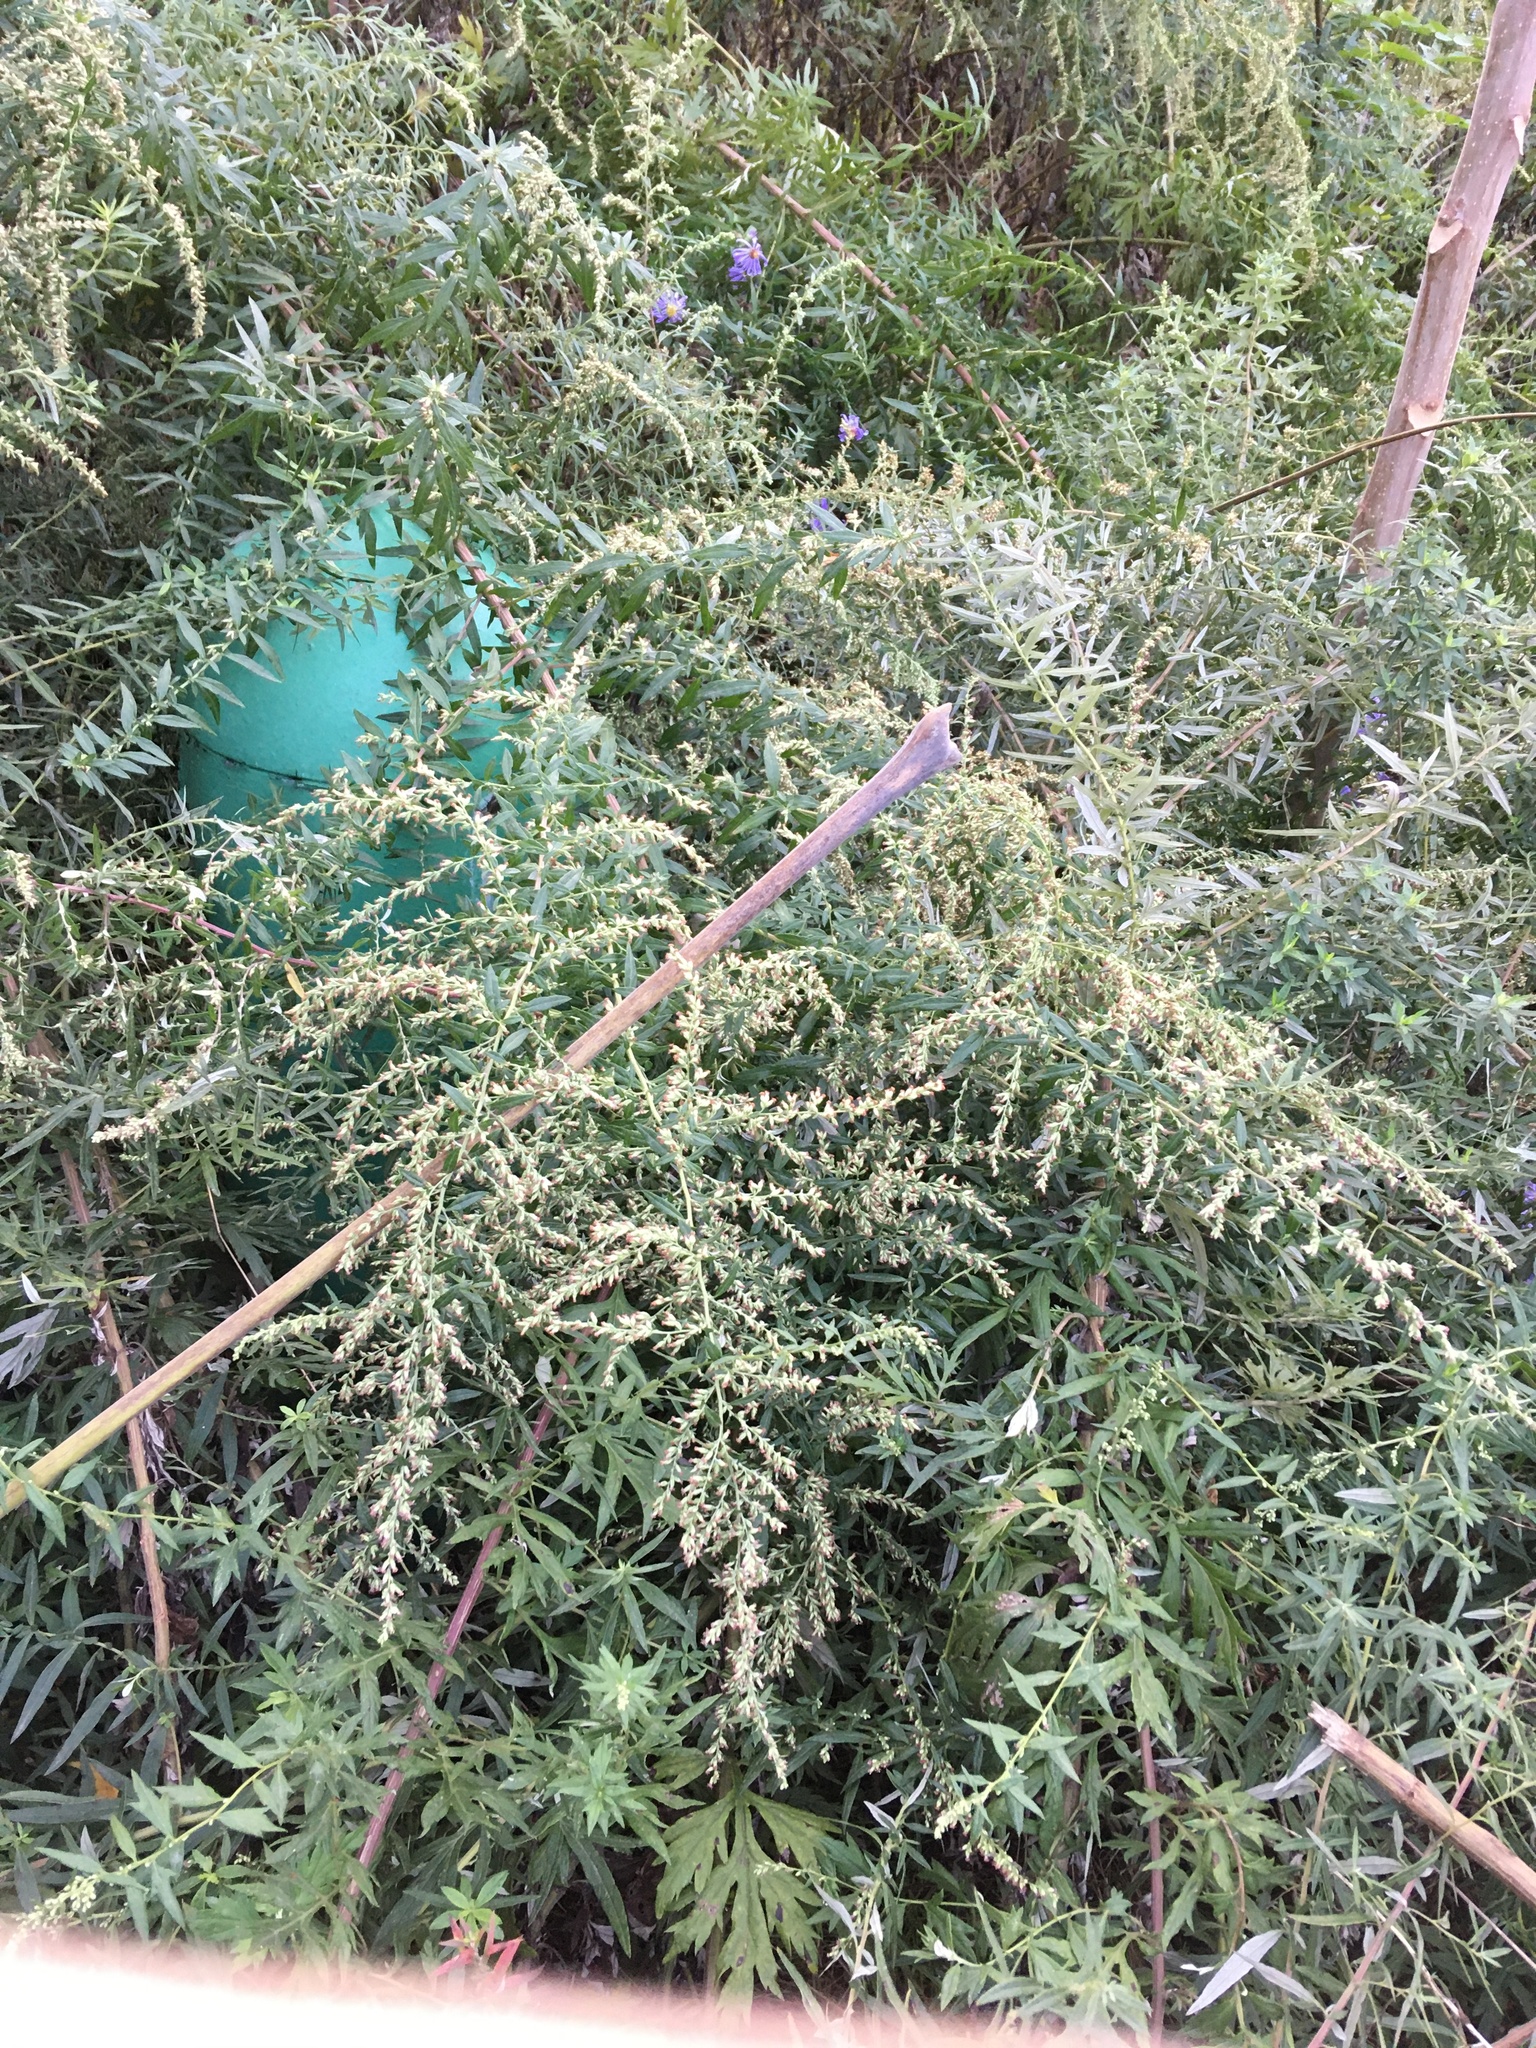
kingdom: Plantae
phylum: Tracheophyta
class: Magnoliopsida
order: Asterales
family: Asteraceae
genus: Artemisia
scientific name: Artemisia vulgaris
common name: Mugwort
